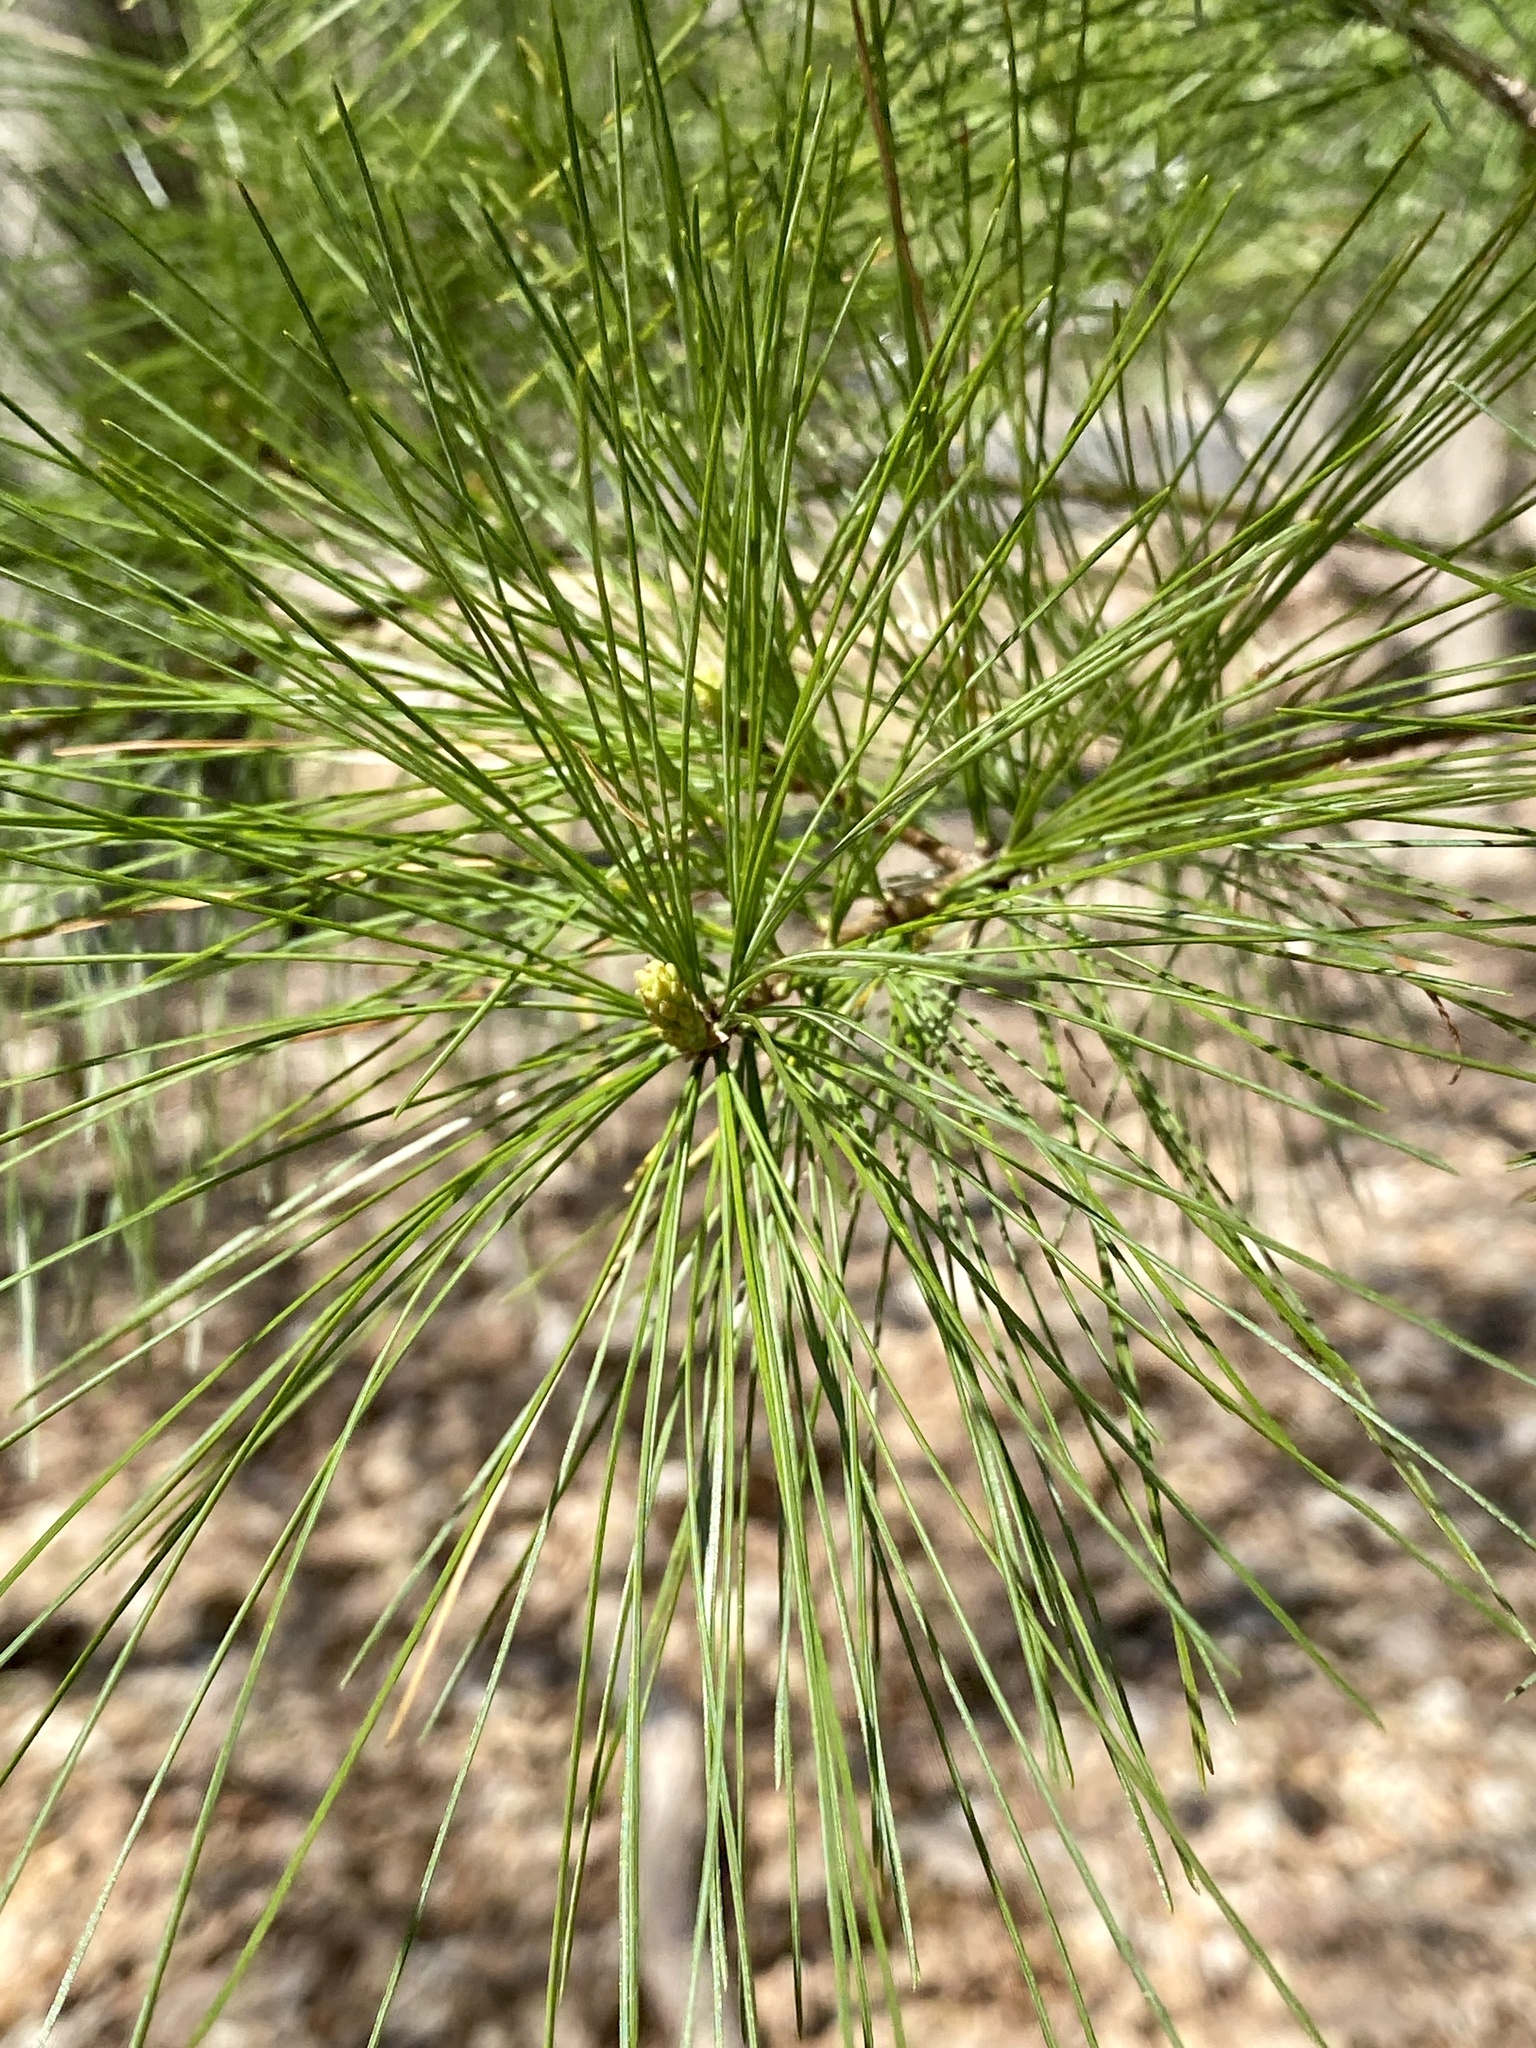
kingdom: Plantae
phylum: Tracheophyta
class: Pinopsida
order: Pinales
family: Pinaceae
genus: Pinus
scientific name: Pinus strobus
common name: Weymouth pine
